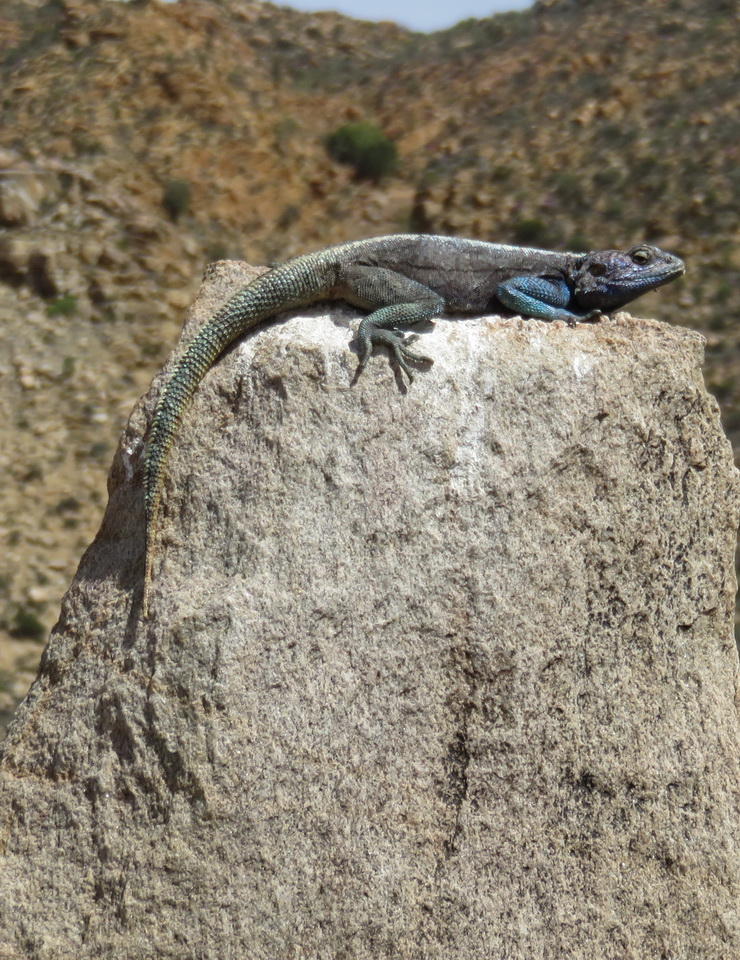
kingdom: Animalia
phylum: Chordata
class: Squamata
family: Agamidae
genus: Agama
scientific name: Agama atra
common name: Southern african rock agama
